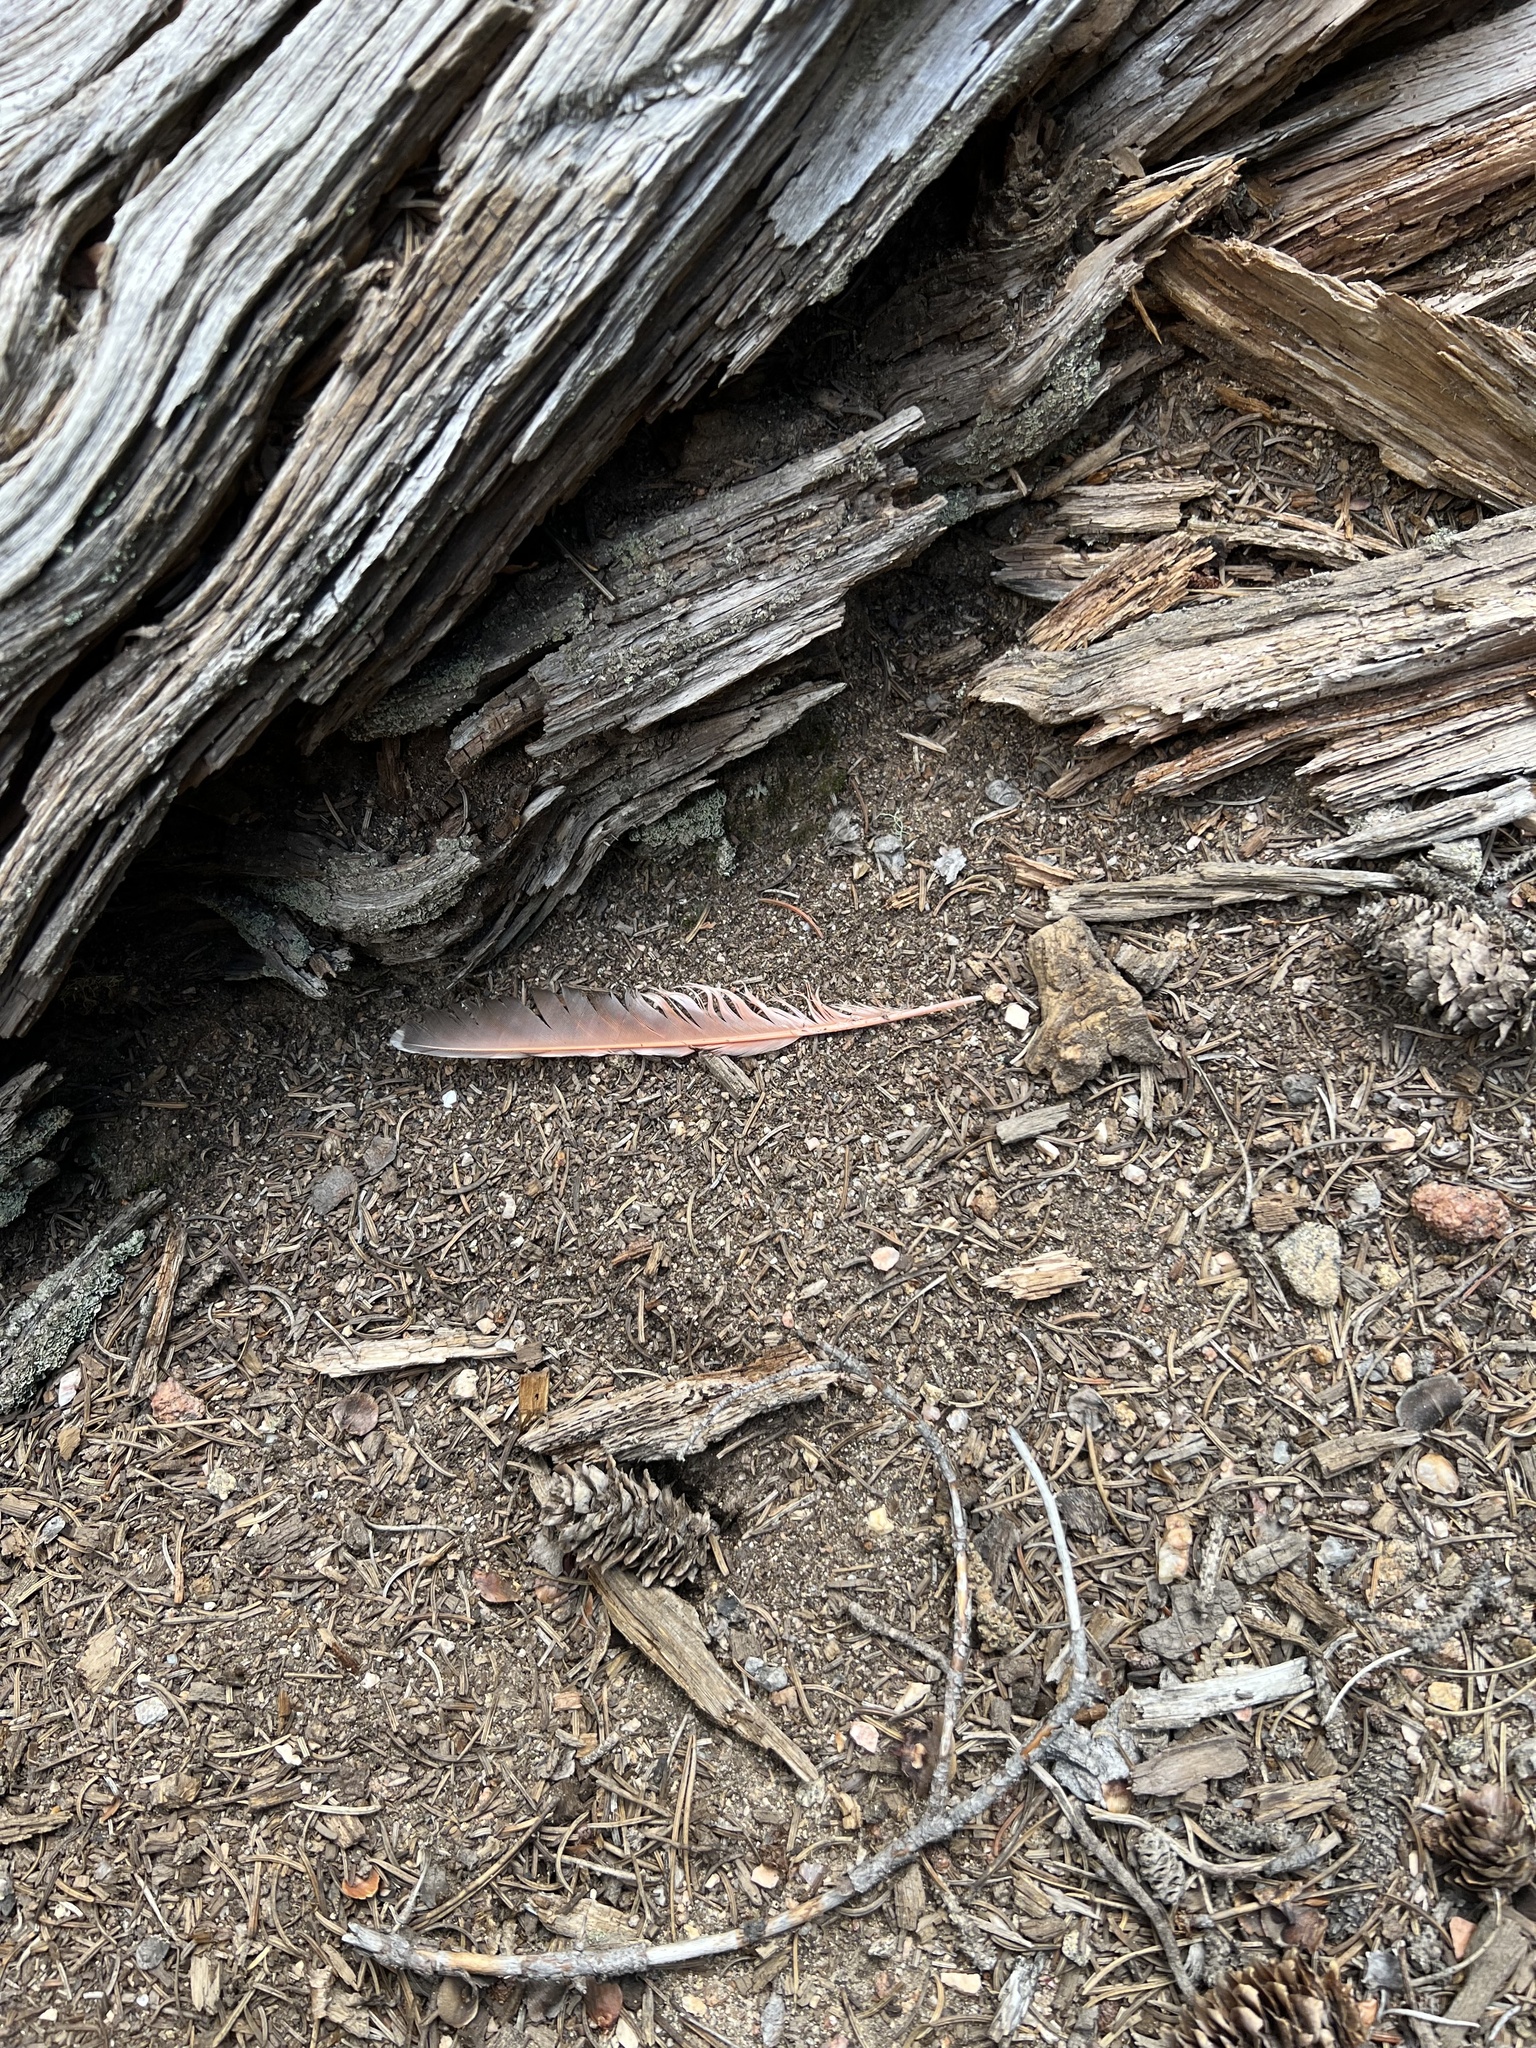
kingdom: Animalia
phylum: Chordata
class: Aves
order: Piciformes
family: Picidae
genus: Colaptes
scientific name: Colaptes auratus
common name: Northern flicker
